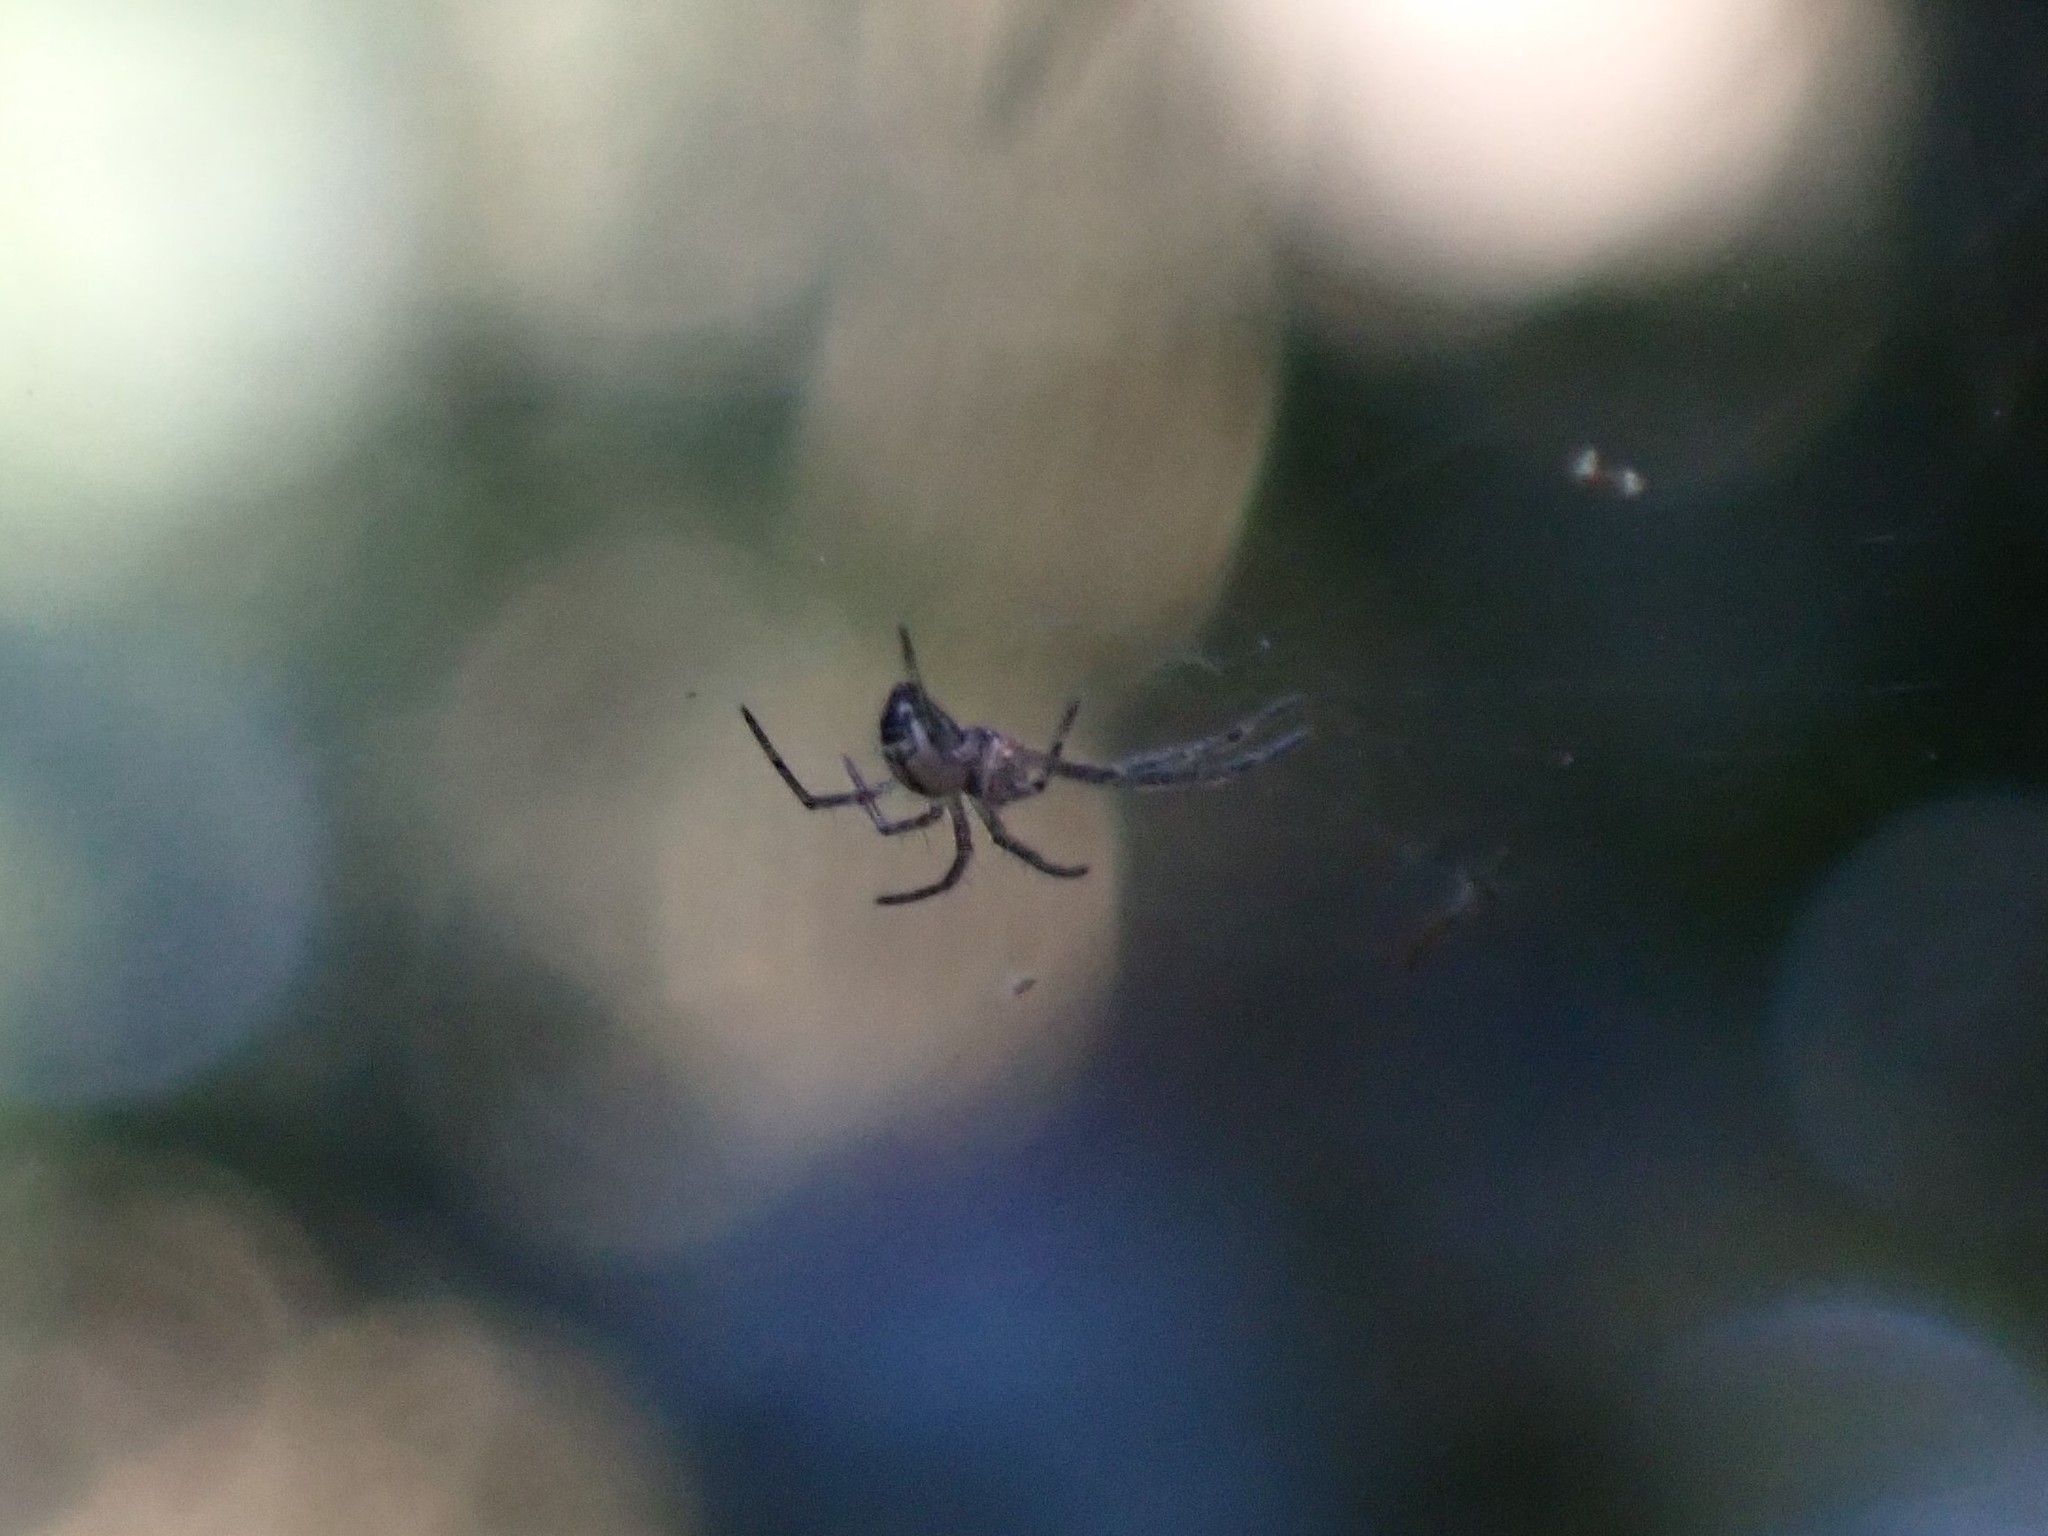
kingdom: Animalia
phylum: Arthropoda
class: Arachnida
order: Araneae
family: Linyphiidae
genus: Neriene
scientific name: Neriene litigiosa
